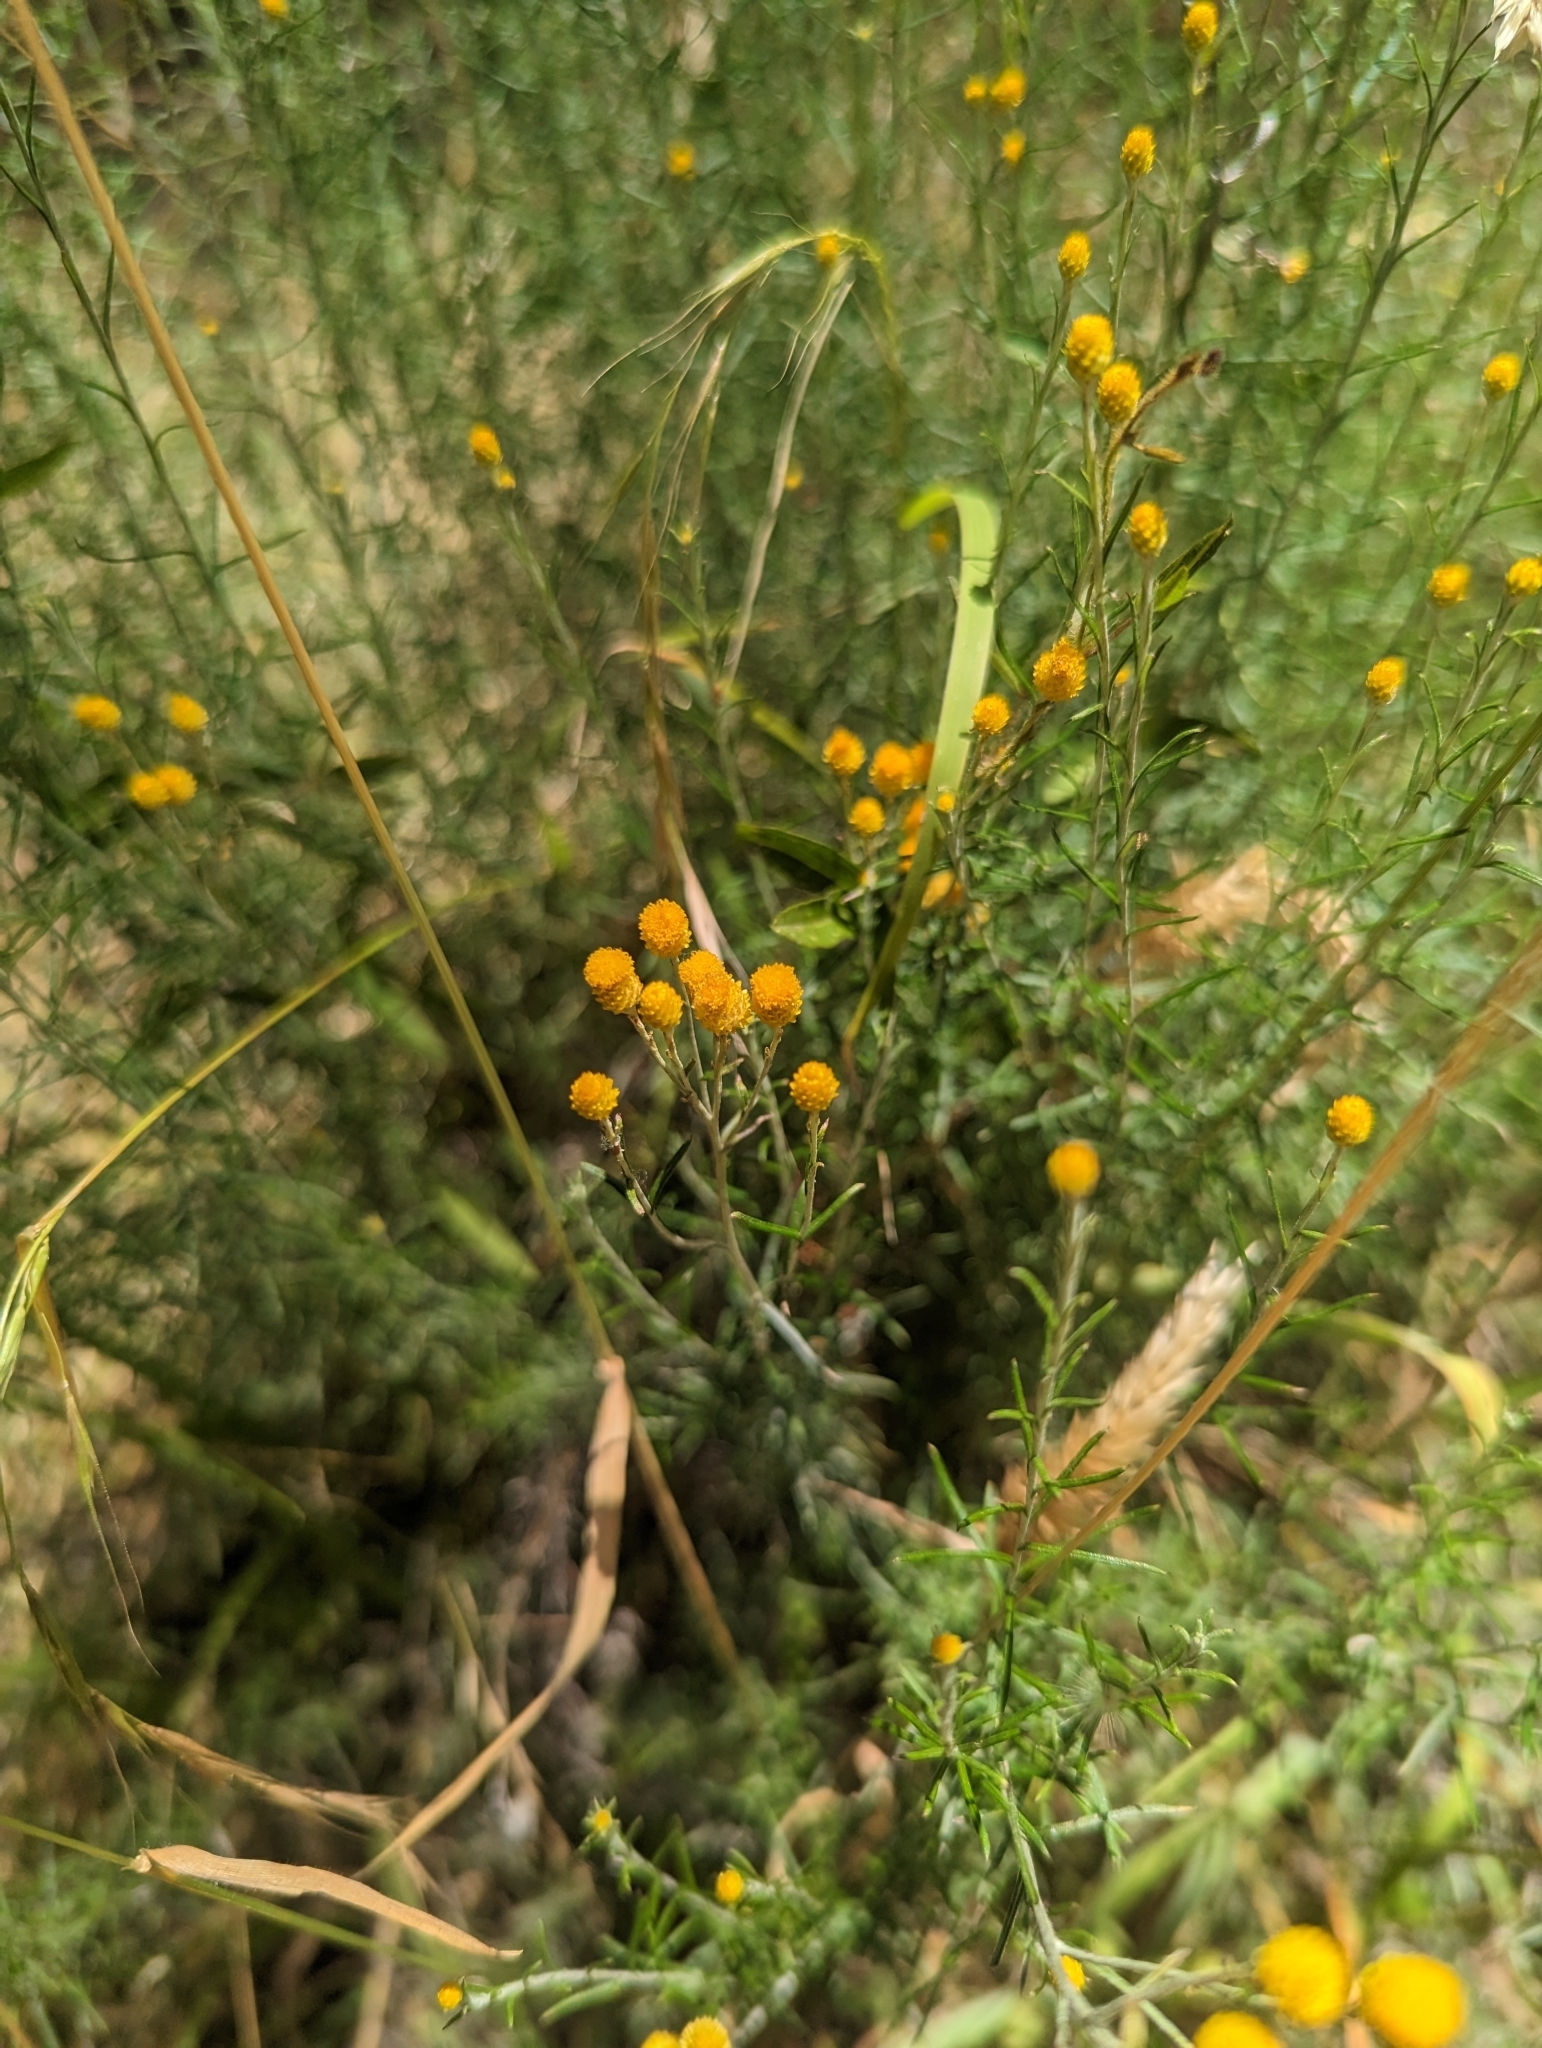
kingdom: Plantae
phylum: Tracheophyta
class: Magnoliopsida
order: Asterales
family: Asteraceae
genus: Chrysocephalum
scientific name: Chrysocephalum semipapposum
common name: Clustered everlasting
